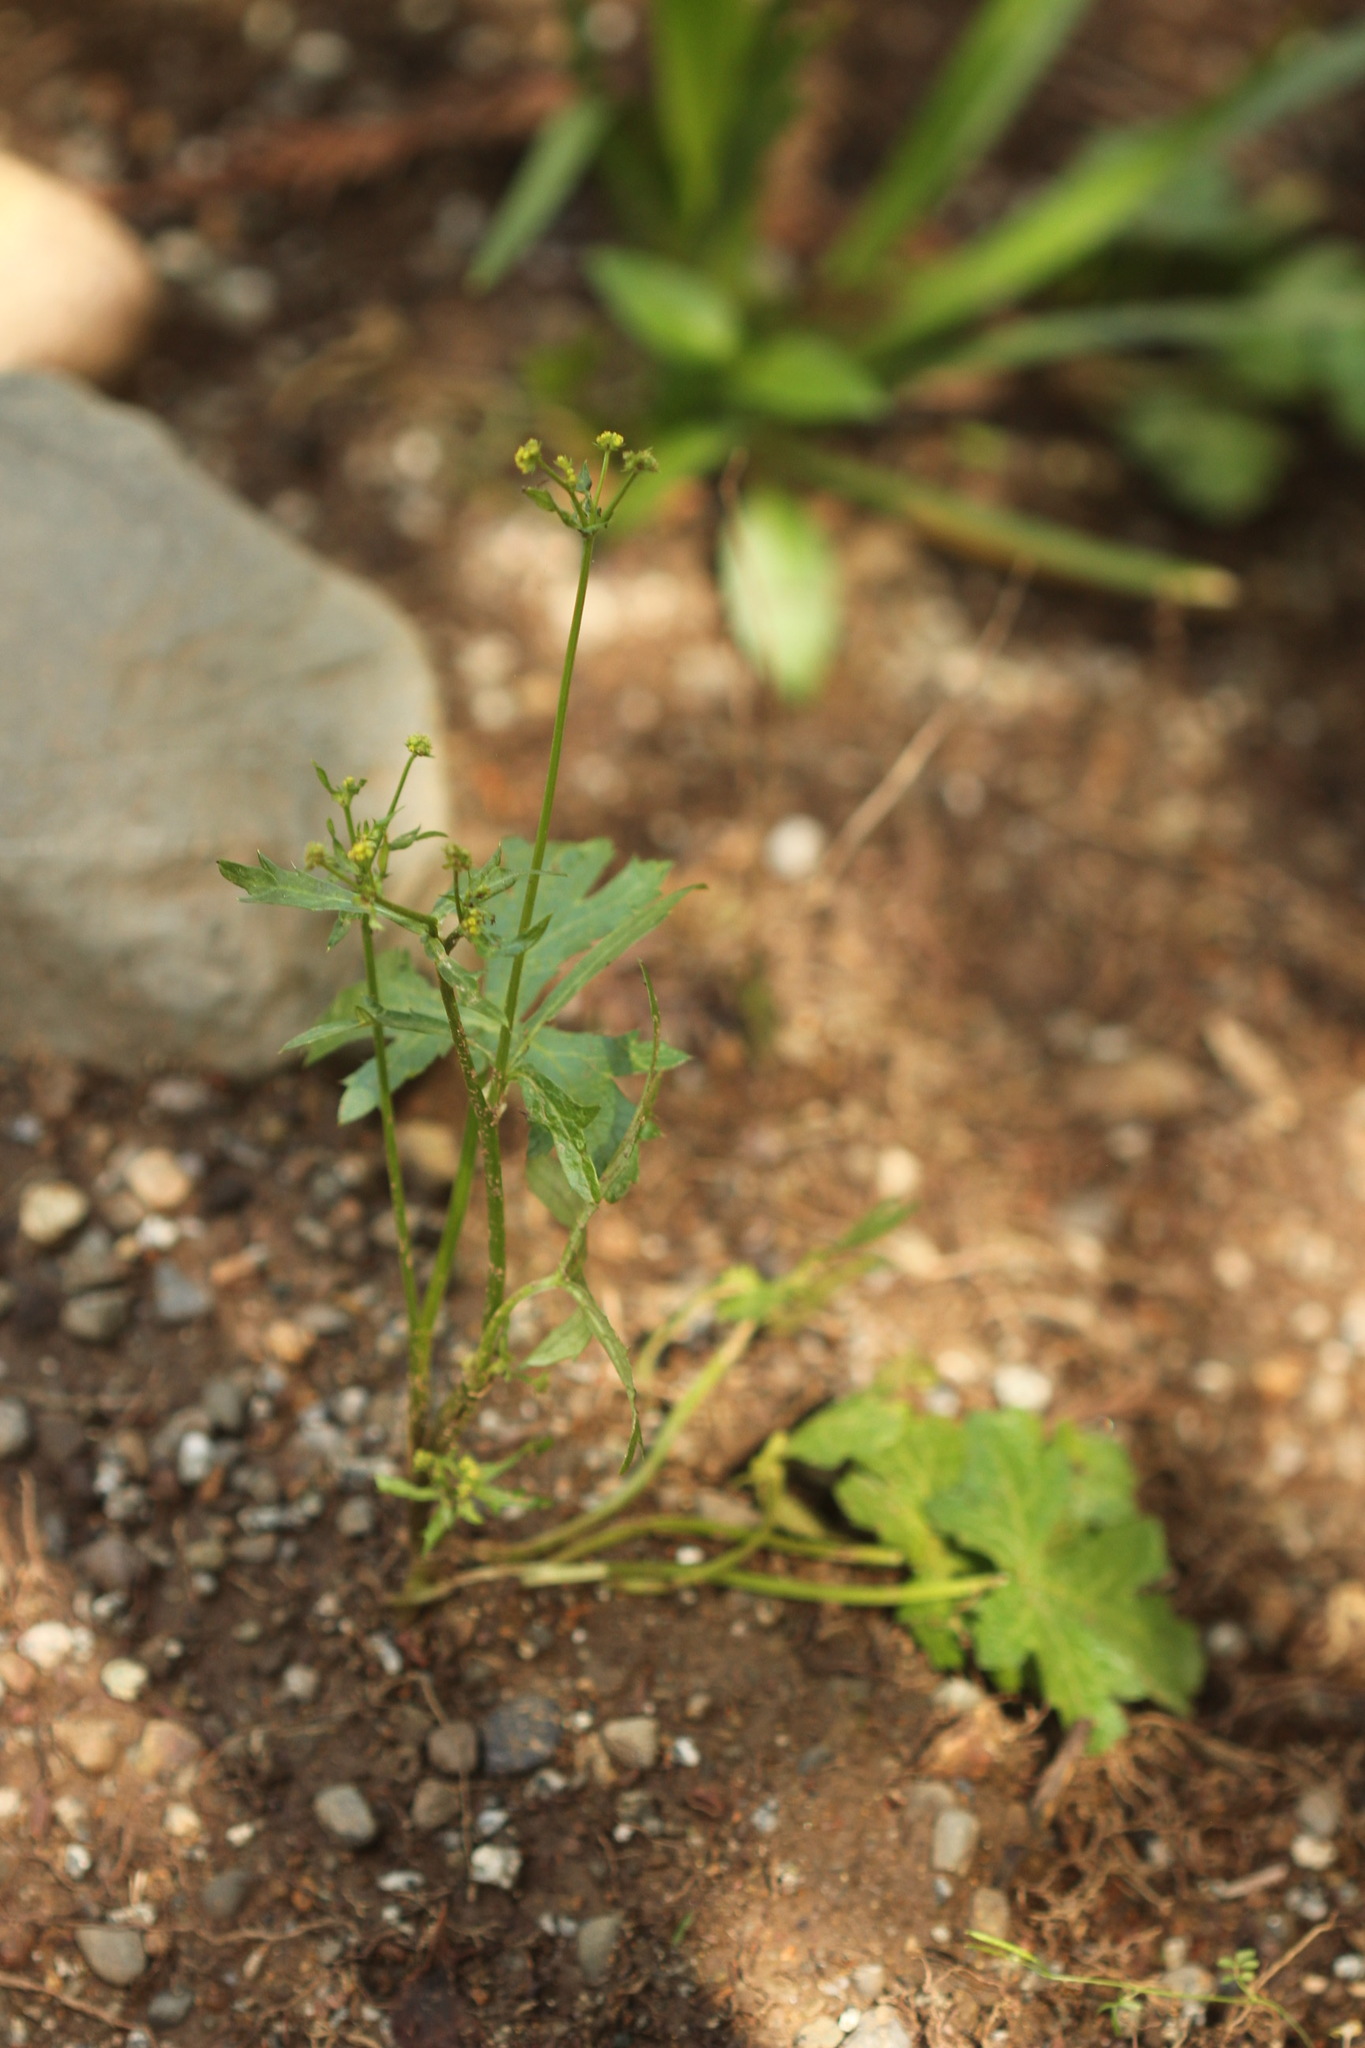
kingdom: Plantae
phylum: Tracheophyta
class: Magnoliopsida
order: Apiales
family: Apiaceae
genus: Sanicula
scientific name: Sanicula crassicaulis
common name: Western snakeroot
